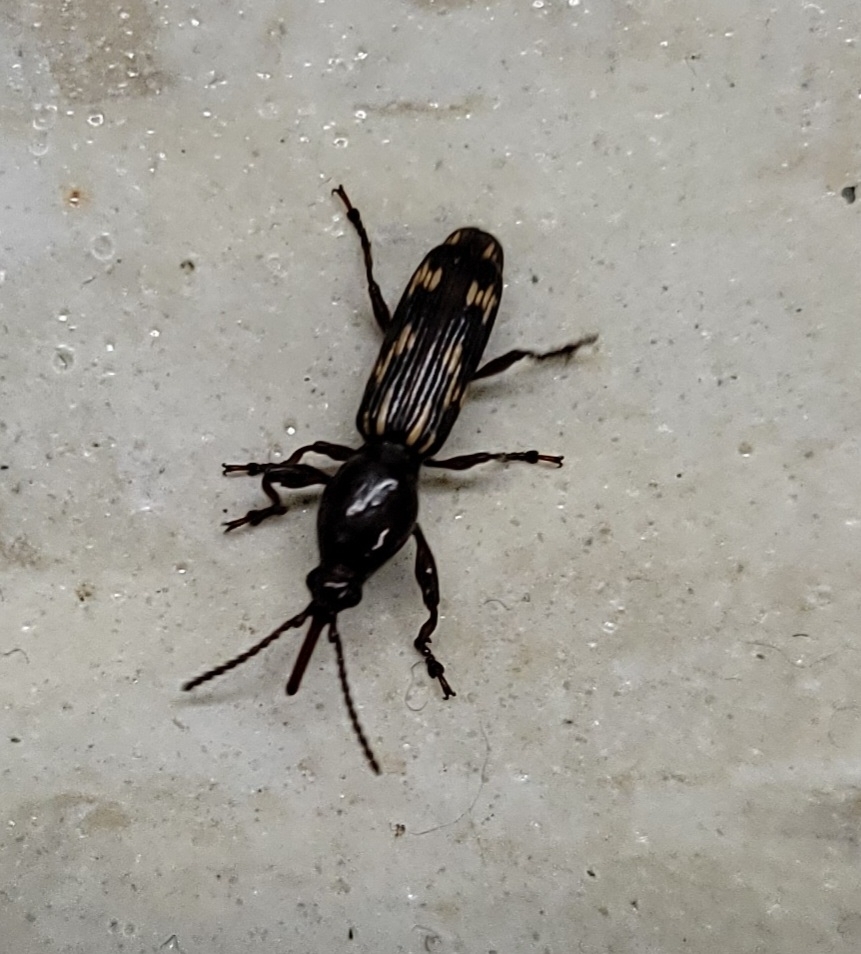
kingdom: Animalia
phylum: Arthropoda
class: Insecta
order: Coleoptera
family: Brentidae
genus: Arrenodes
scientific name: Arrenodes minutus
